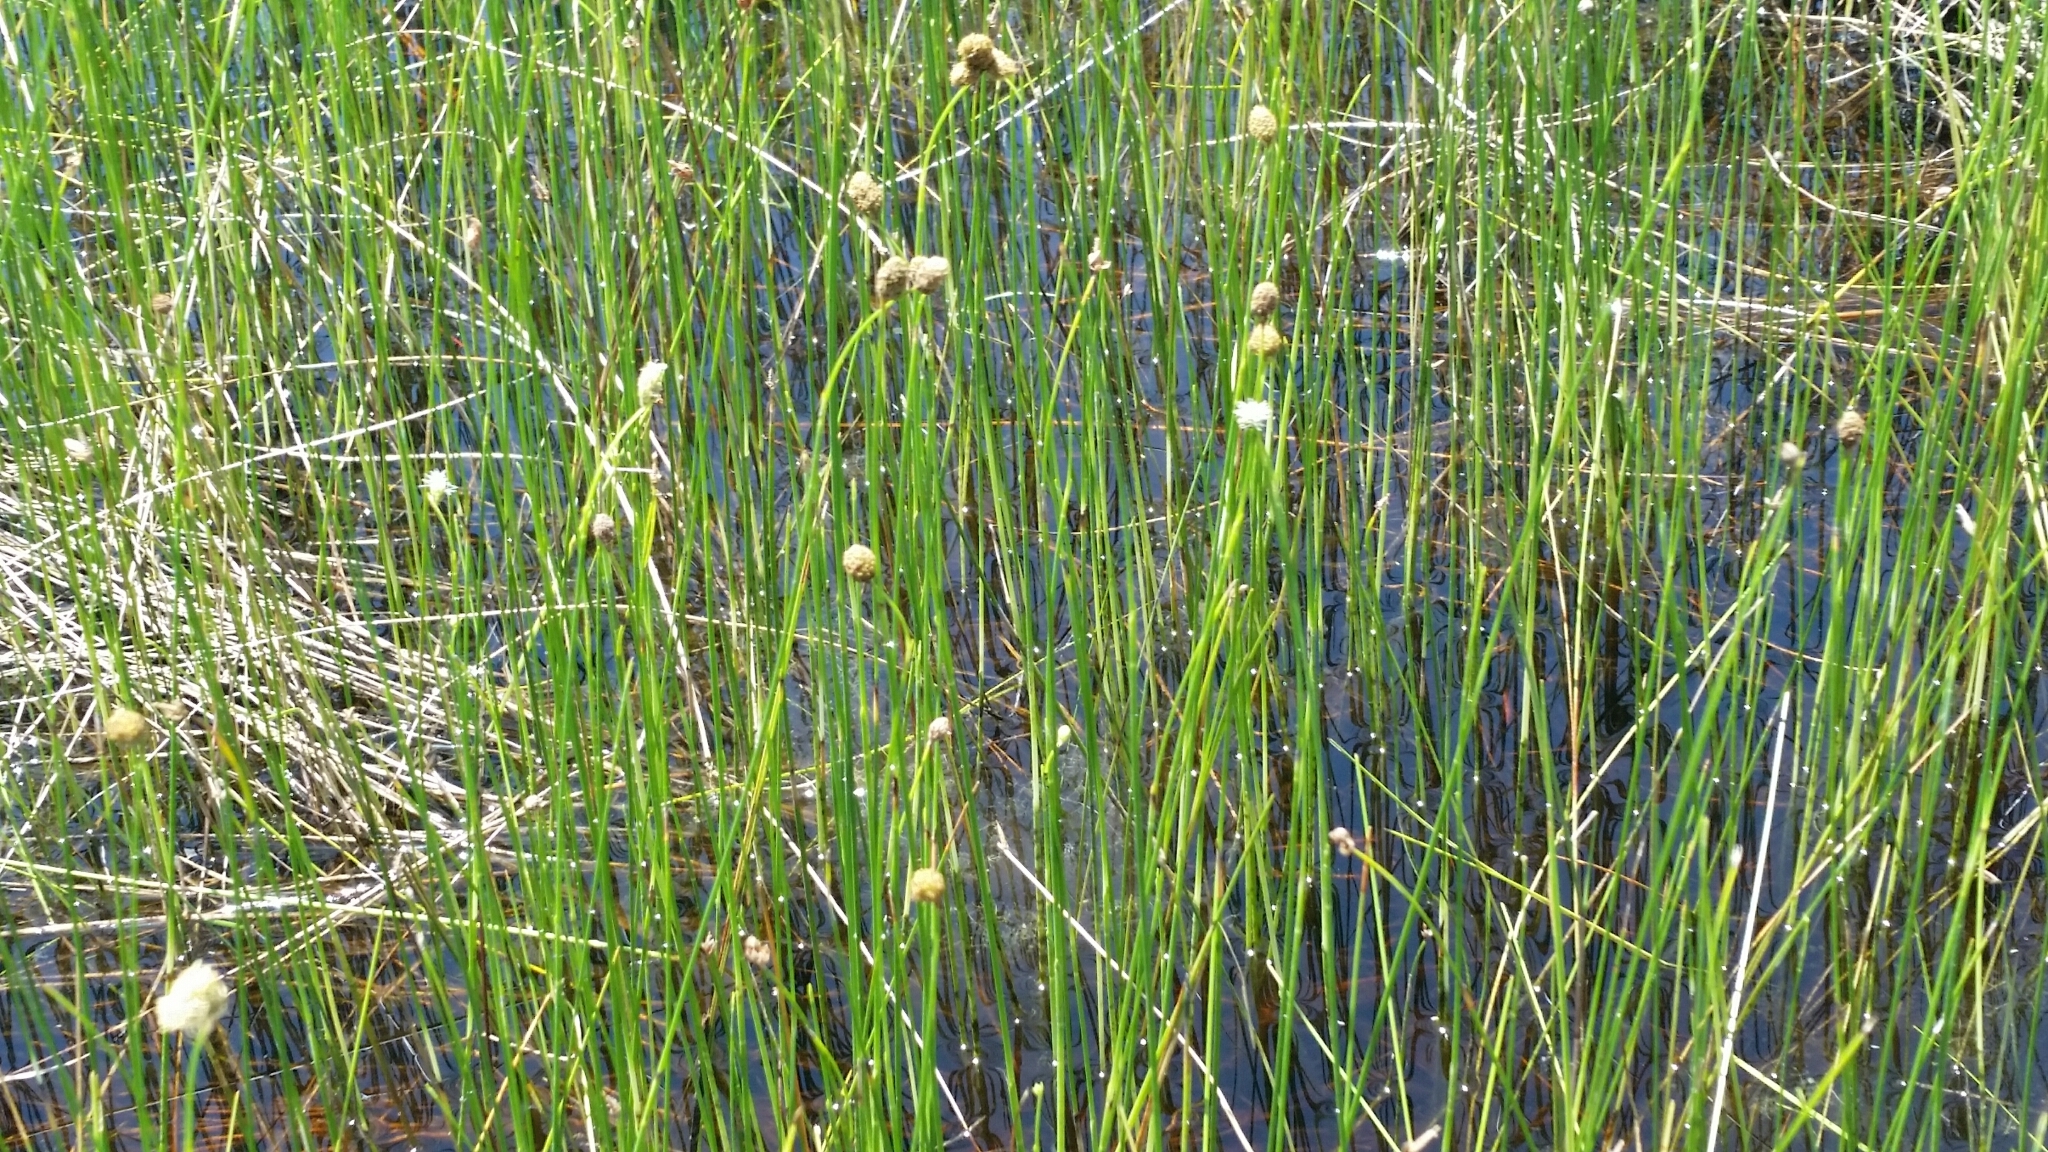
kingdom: Plantae
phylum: Tracheophyta
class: Liliopsida
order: Poales
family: Cyperaceae
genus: Fuirena
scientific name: Fuirena scirpoidea
